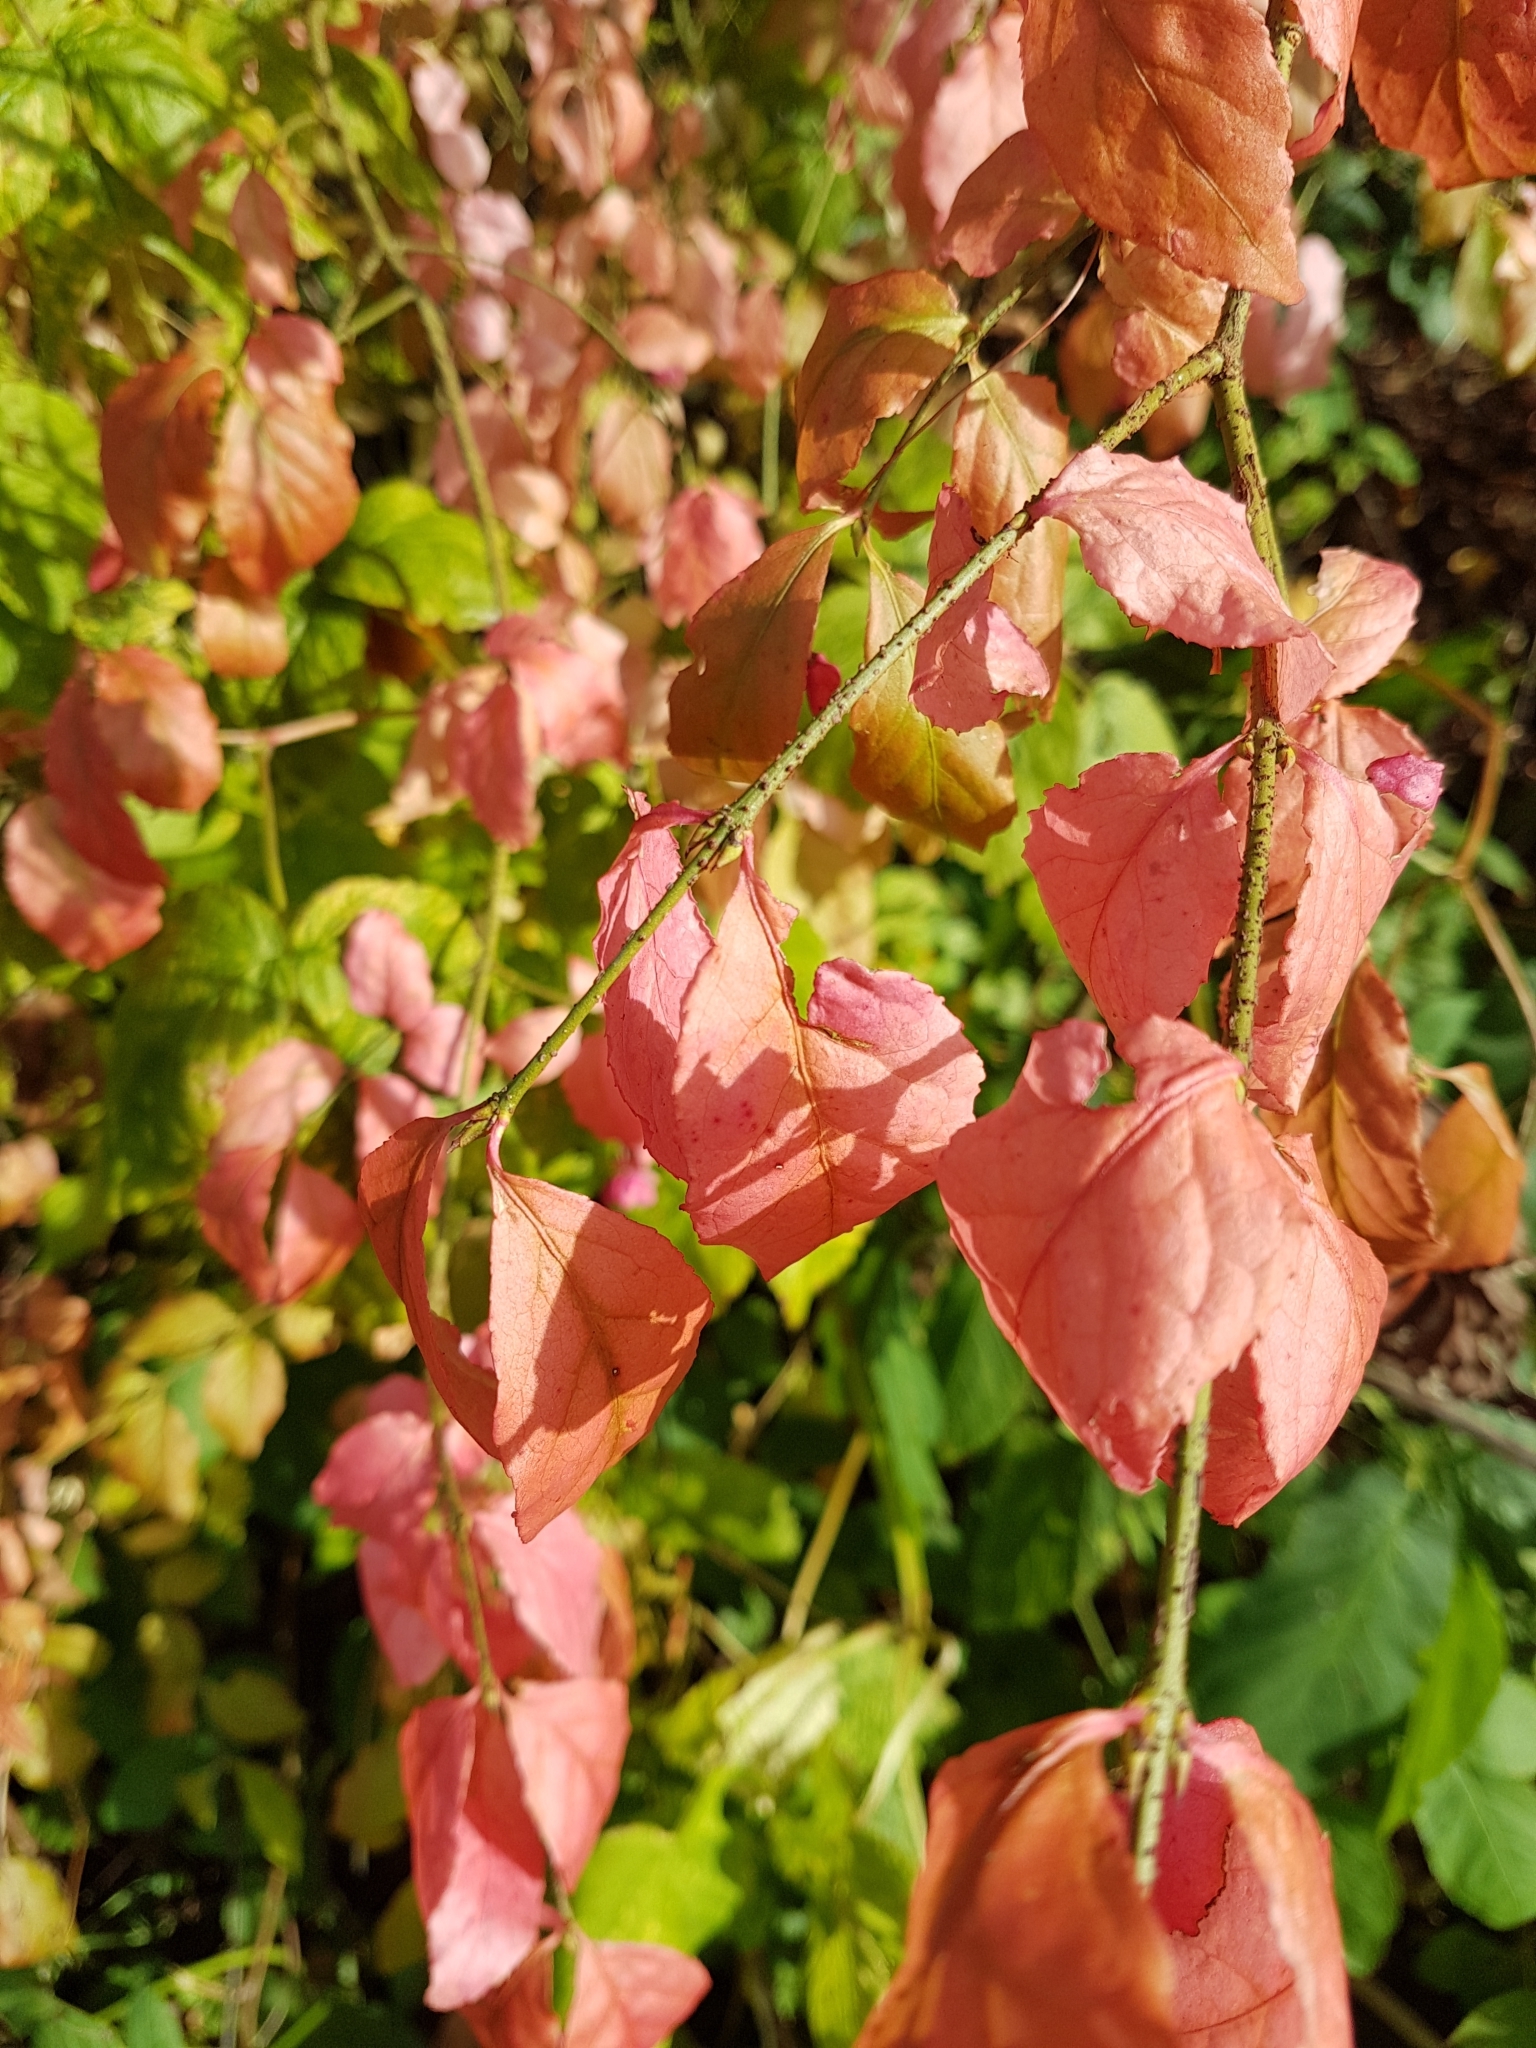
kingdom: Plantae
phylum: Tracheophyta
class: Magnoliopsida
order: Celastrales
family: Celastraceae
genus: Euonymus
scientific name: Euonymus verrucosus
